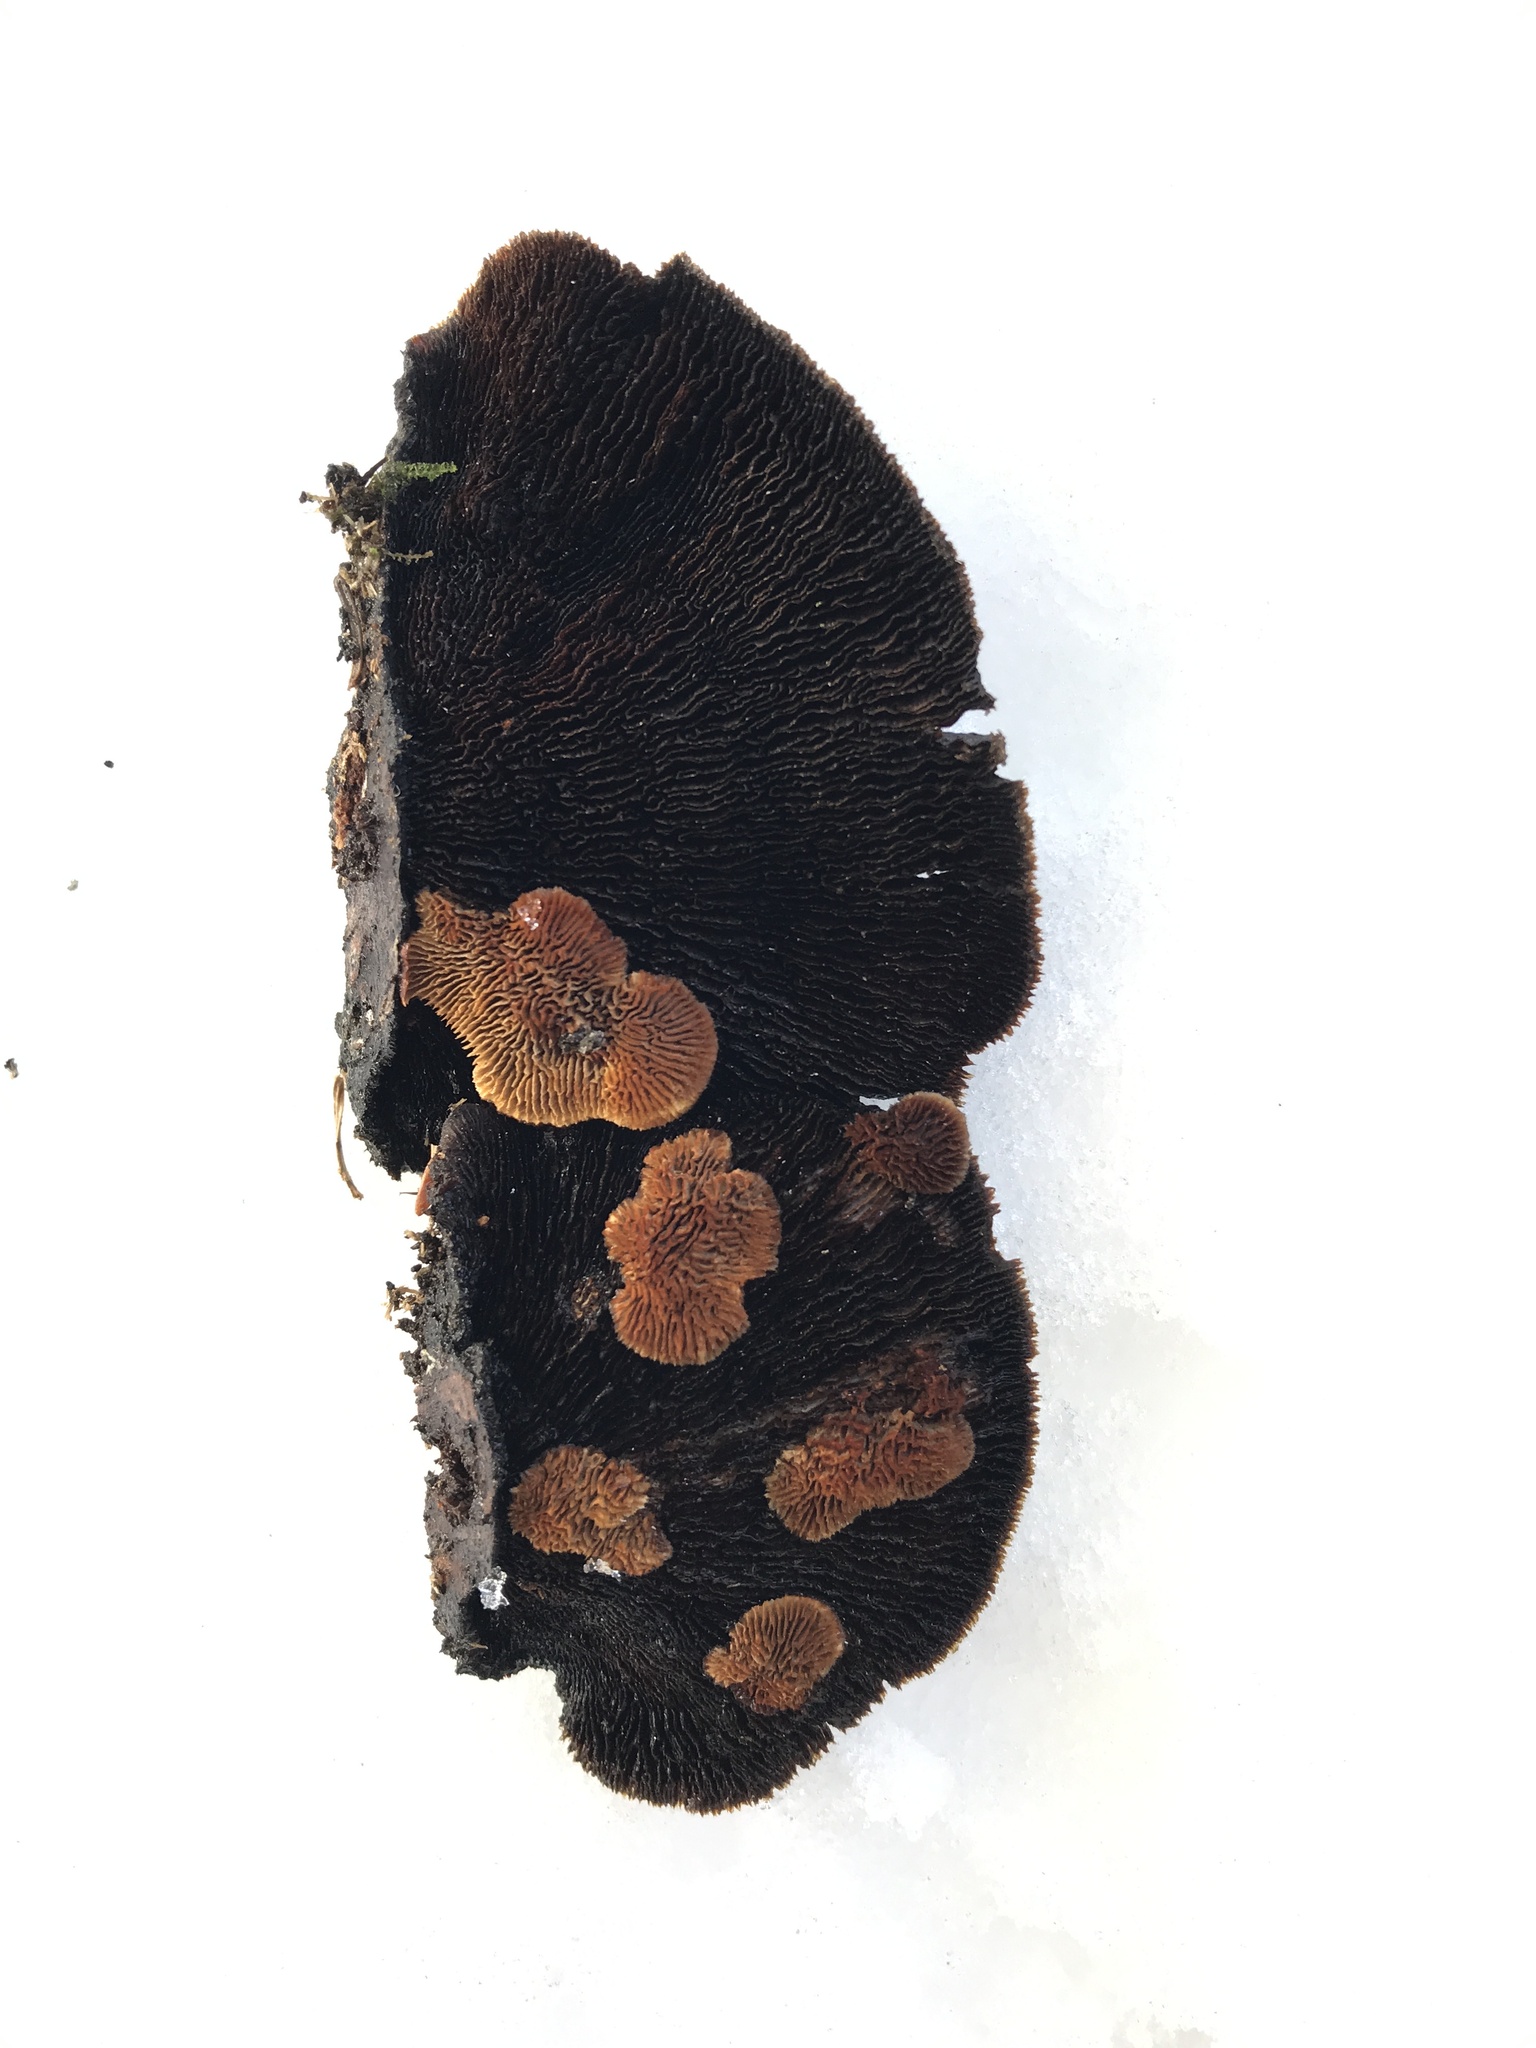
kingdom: Fungi
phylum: Basidiomycota
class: Agaricomycetes
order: Gloeophyllales
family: Gloeophyllaceae
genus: Gloeophyllum
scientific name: Gloeophyllum sepiarium
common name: Conifer mazegill
